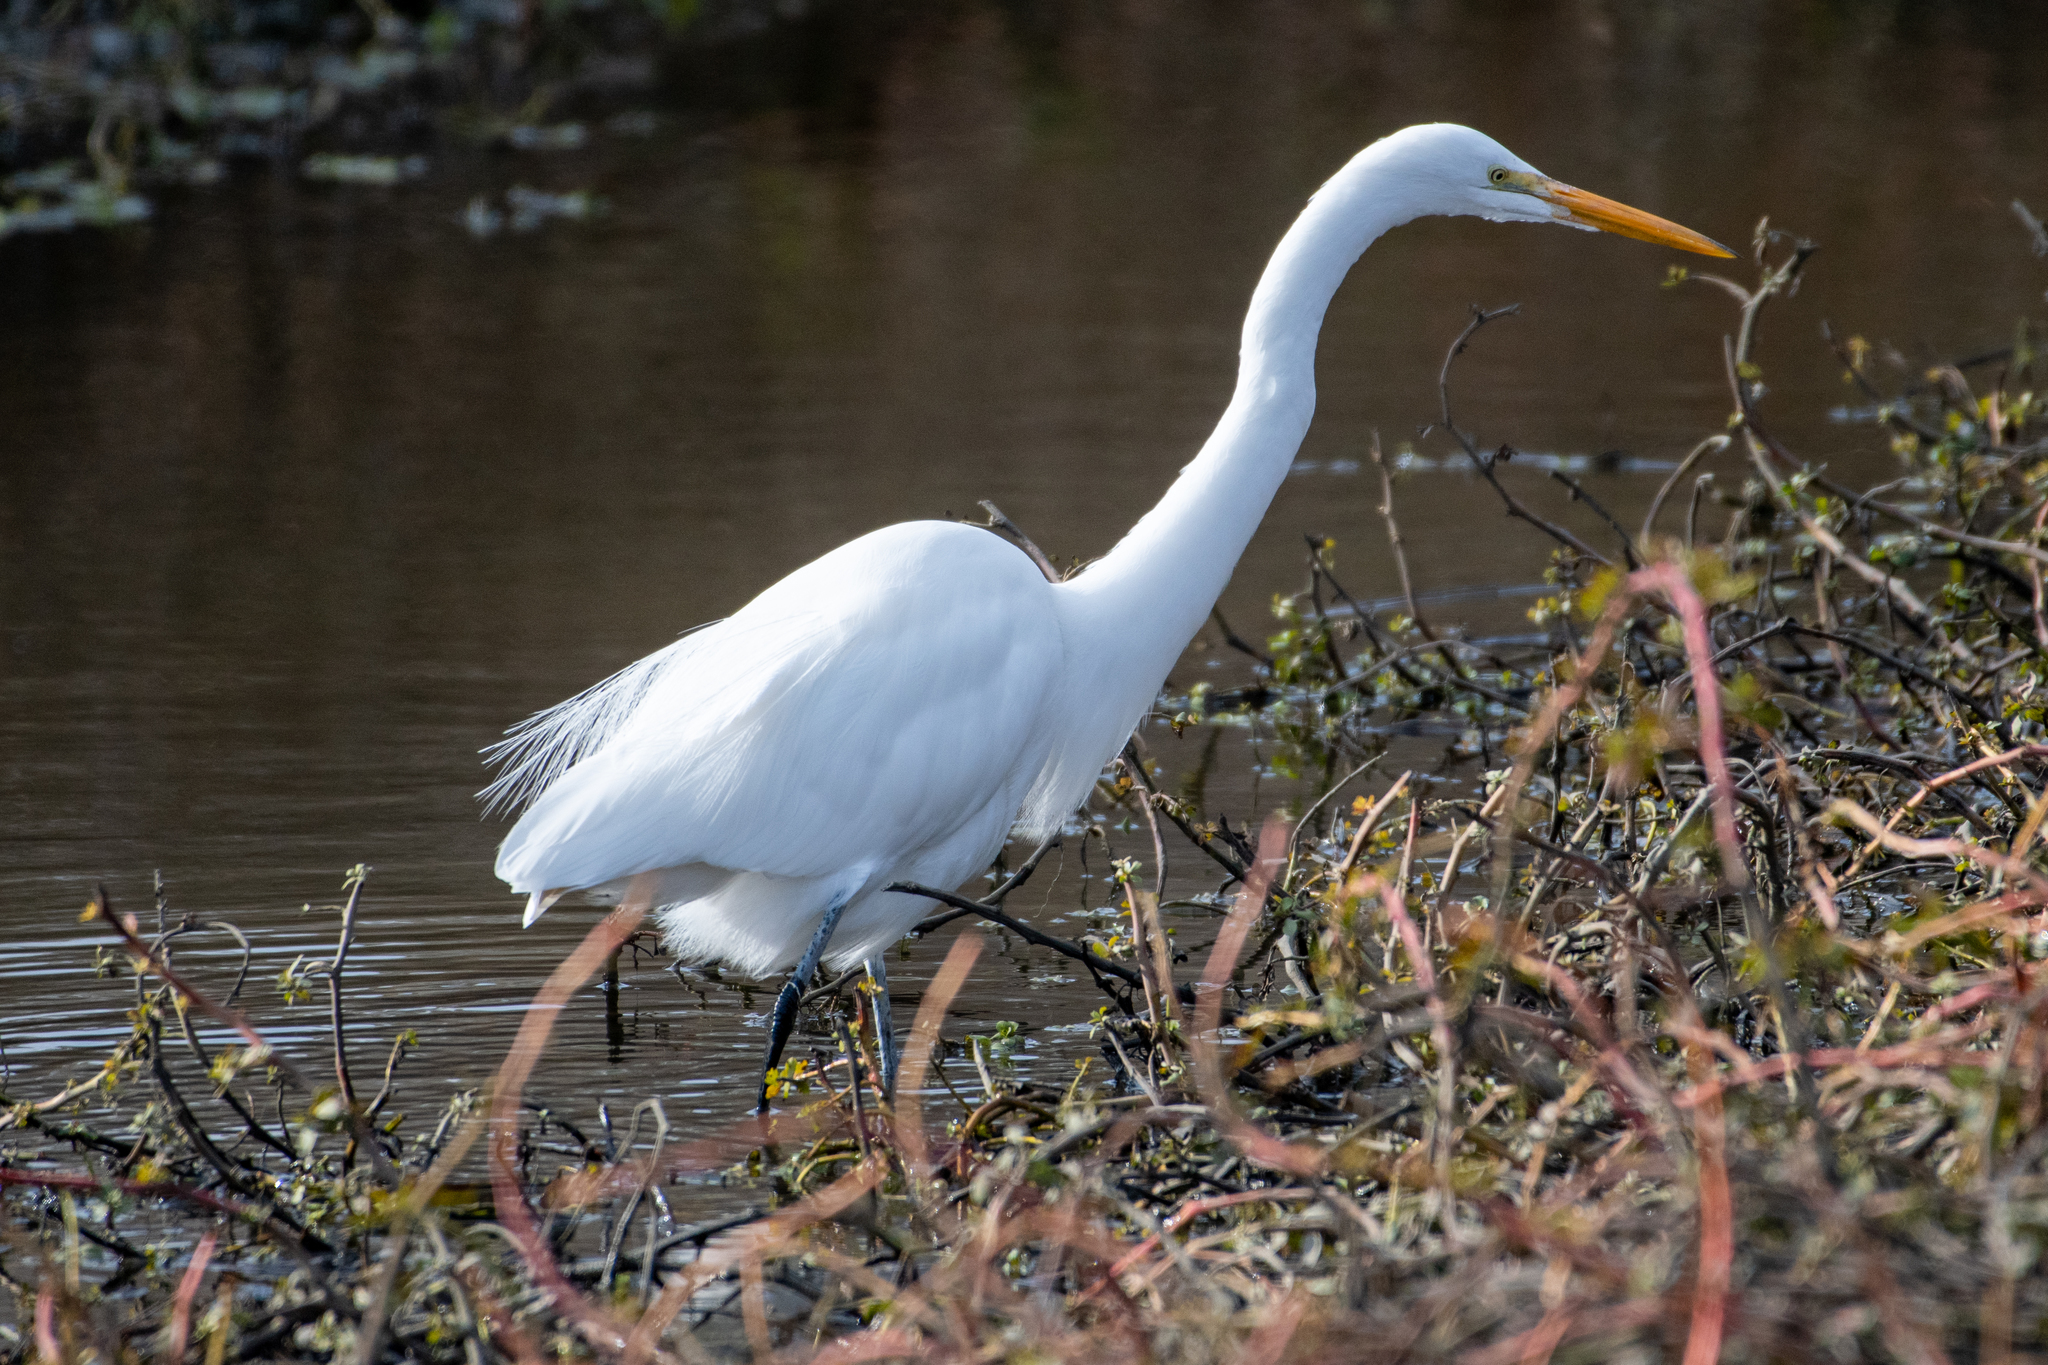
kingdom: Animalia
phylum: Chordata
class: Aves
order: Pelecaniformes
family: Ardeidae
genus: Ardea
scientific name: Ardea alba
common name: Great egret
